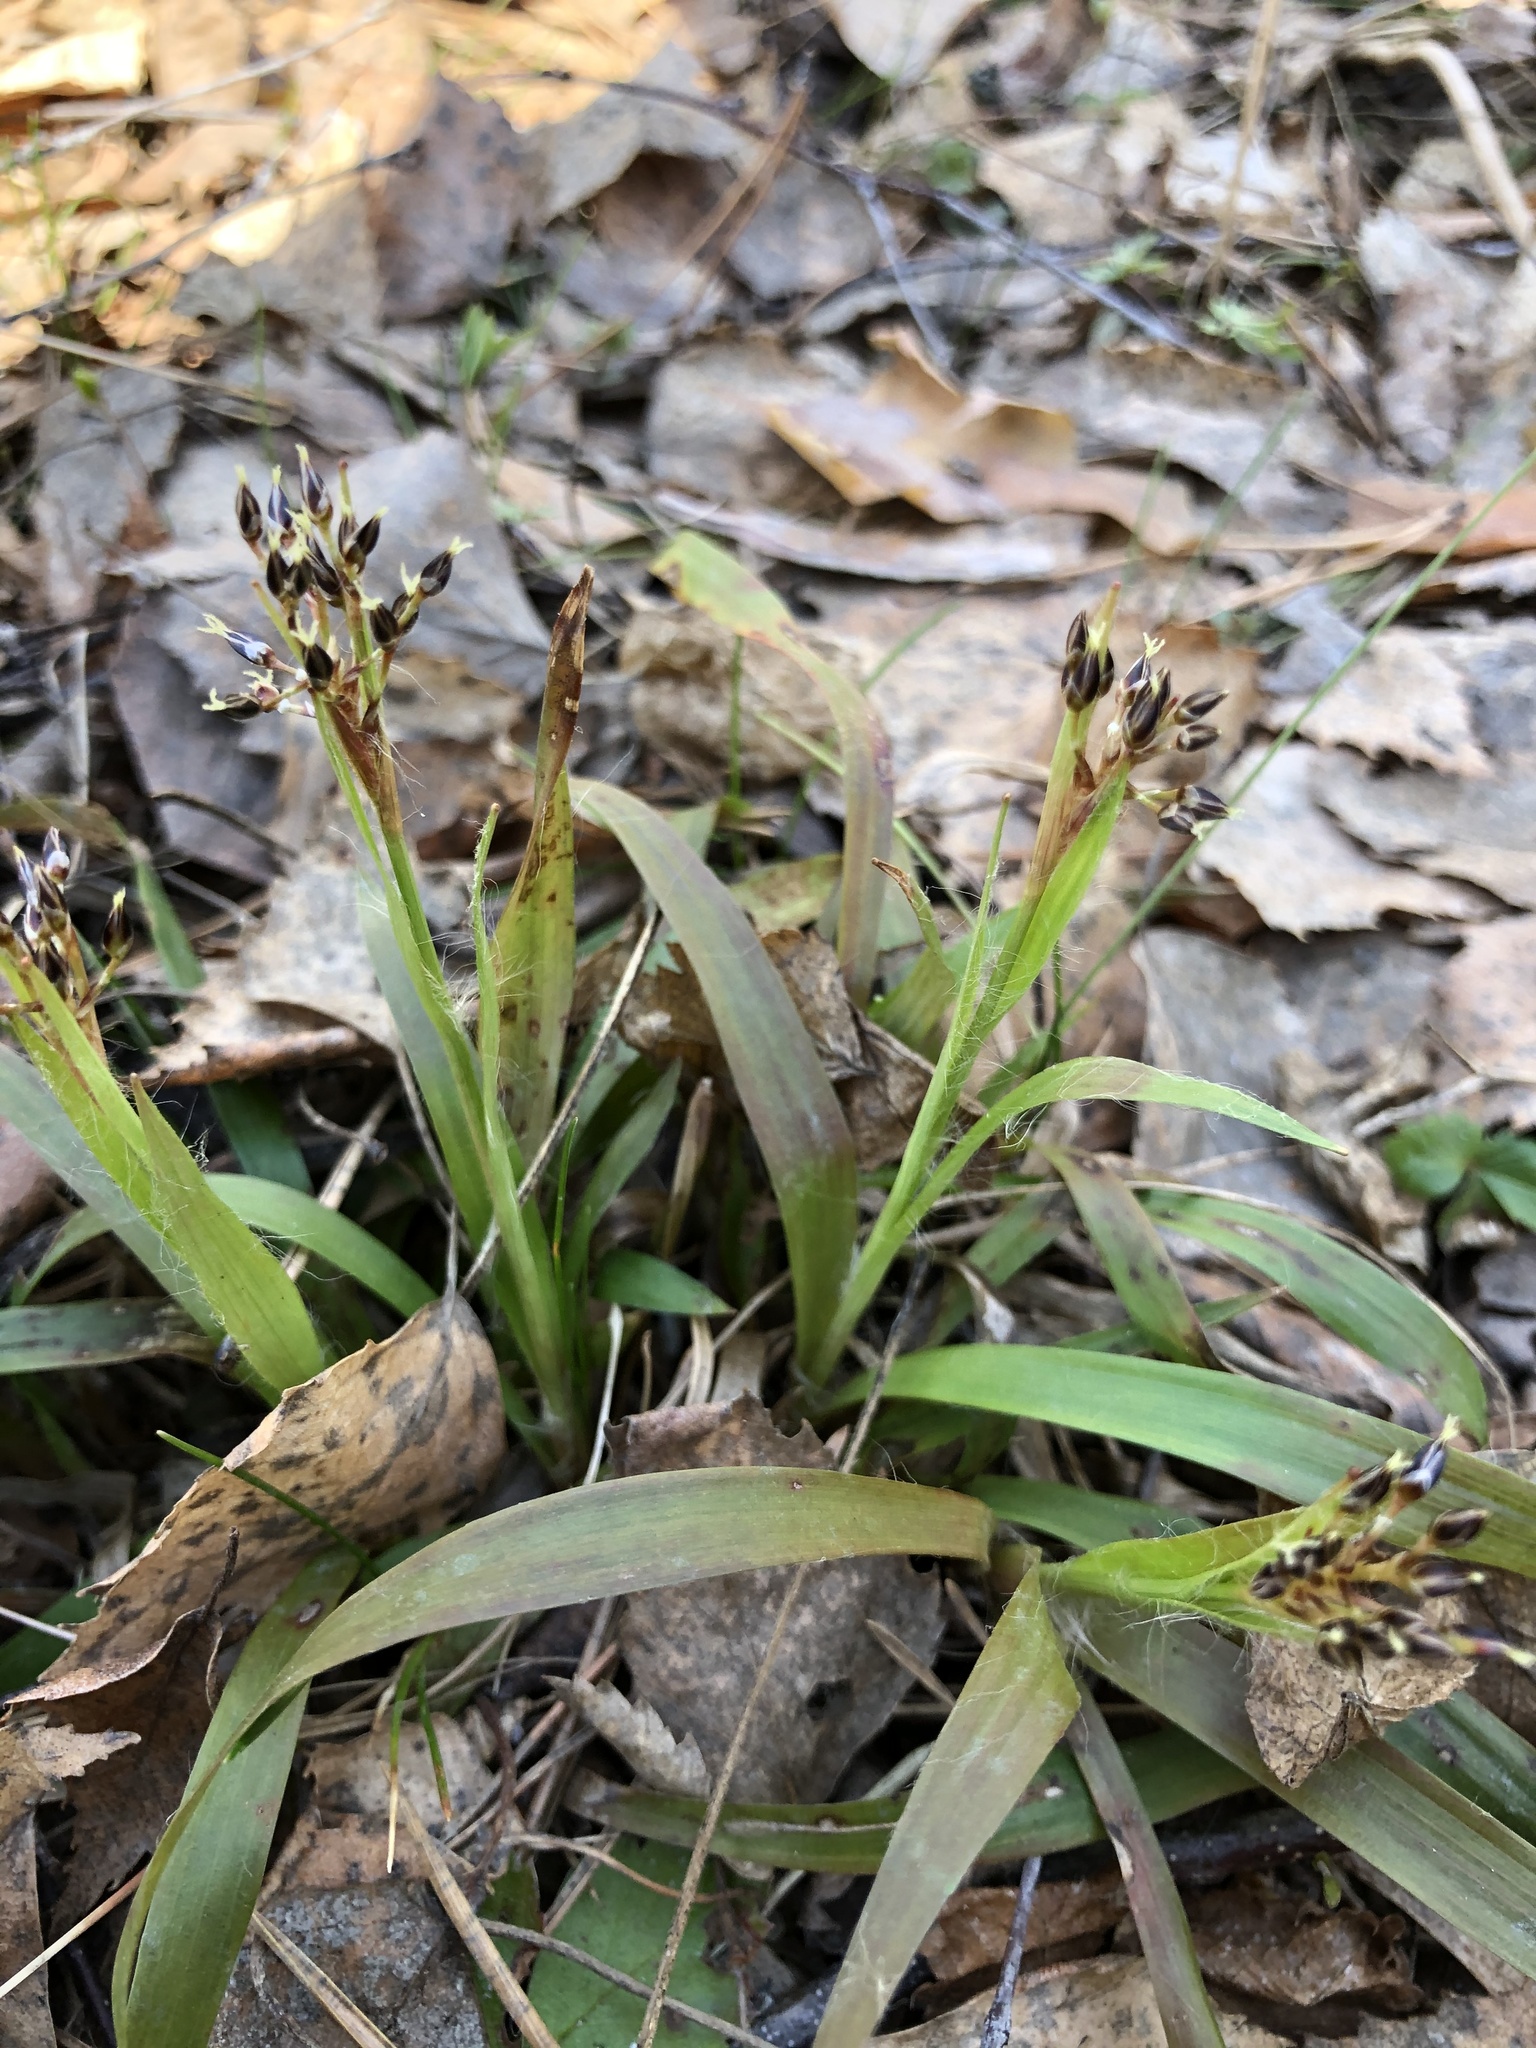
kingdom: Plantae
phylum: Tracheophyta
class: Liliopsida
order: Poales
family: Juncaceae
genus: Luzula
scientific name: Luzula pilosa
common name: Hairy wood-rush
